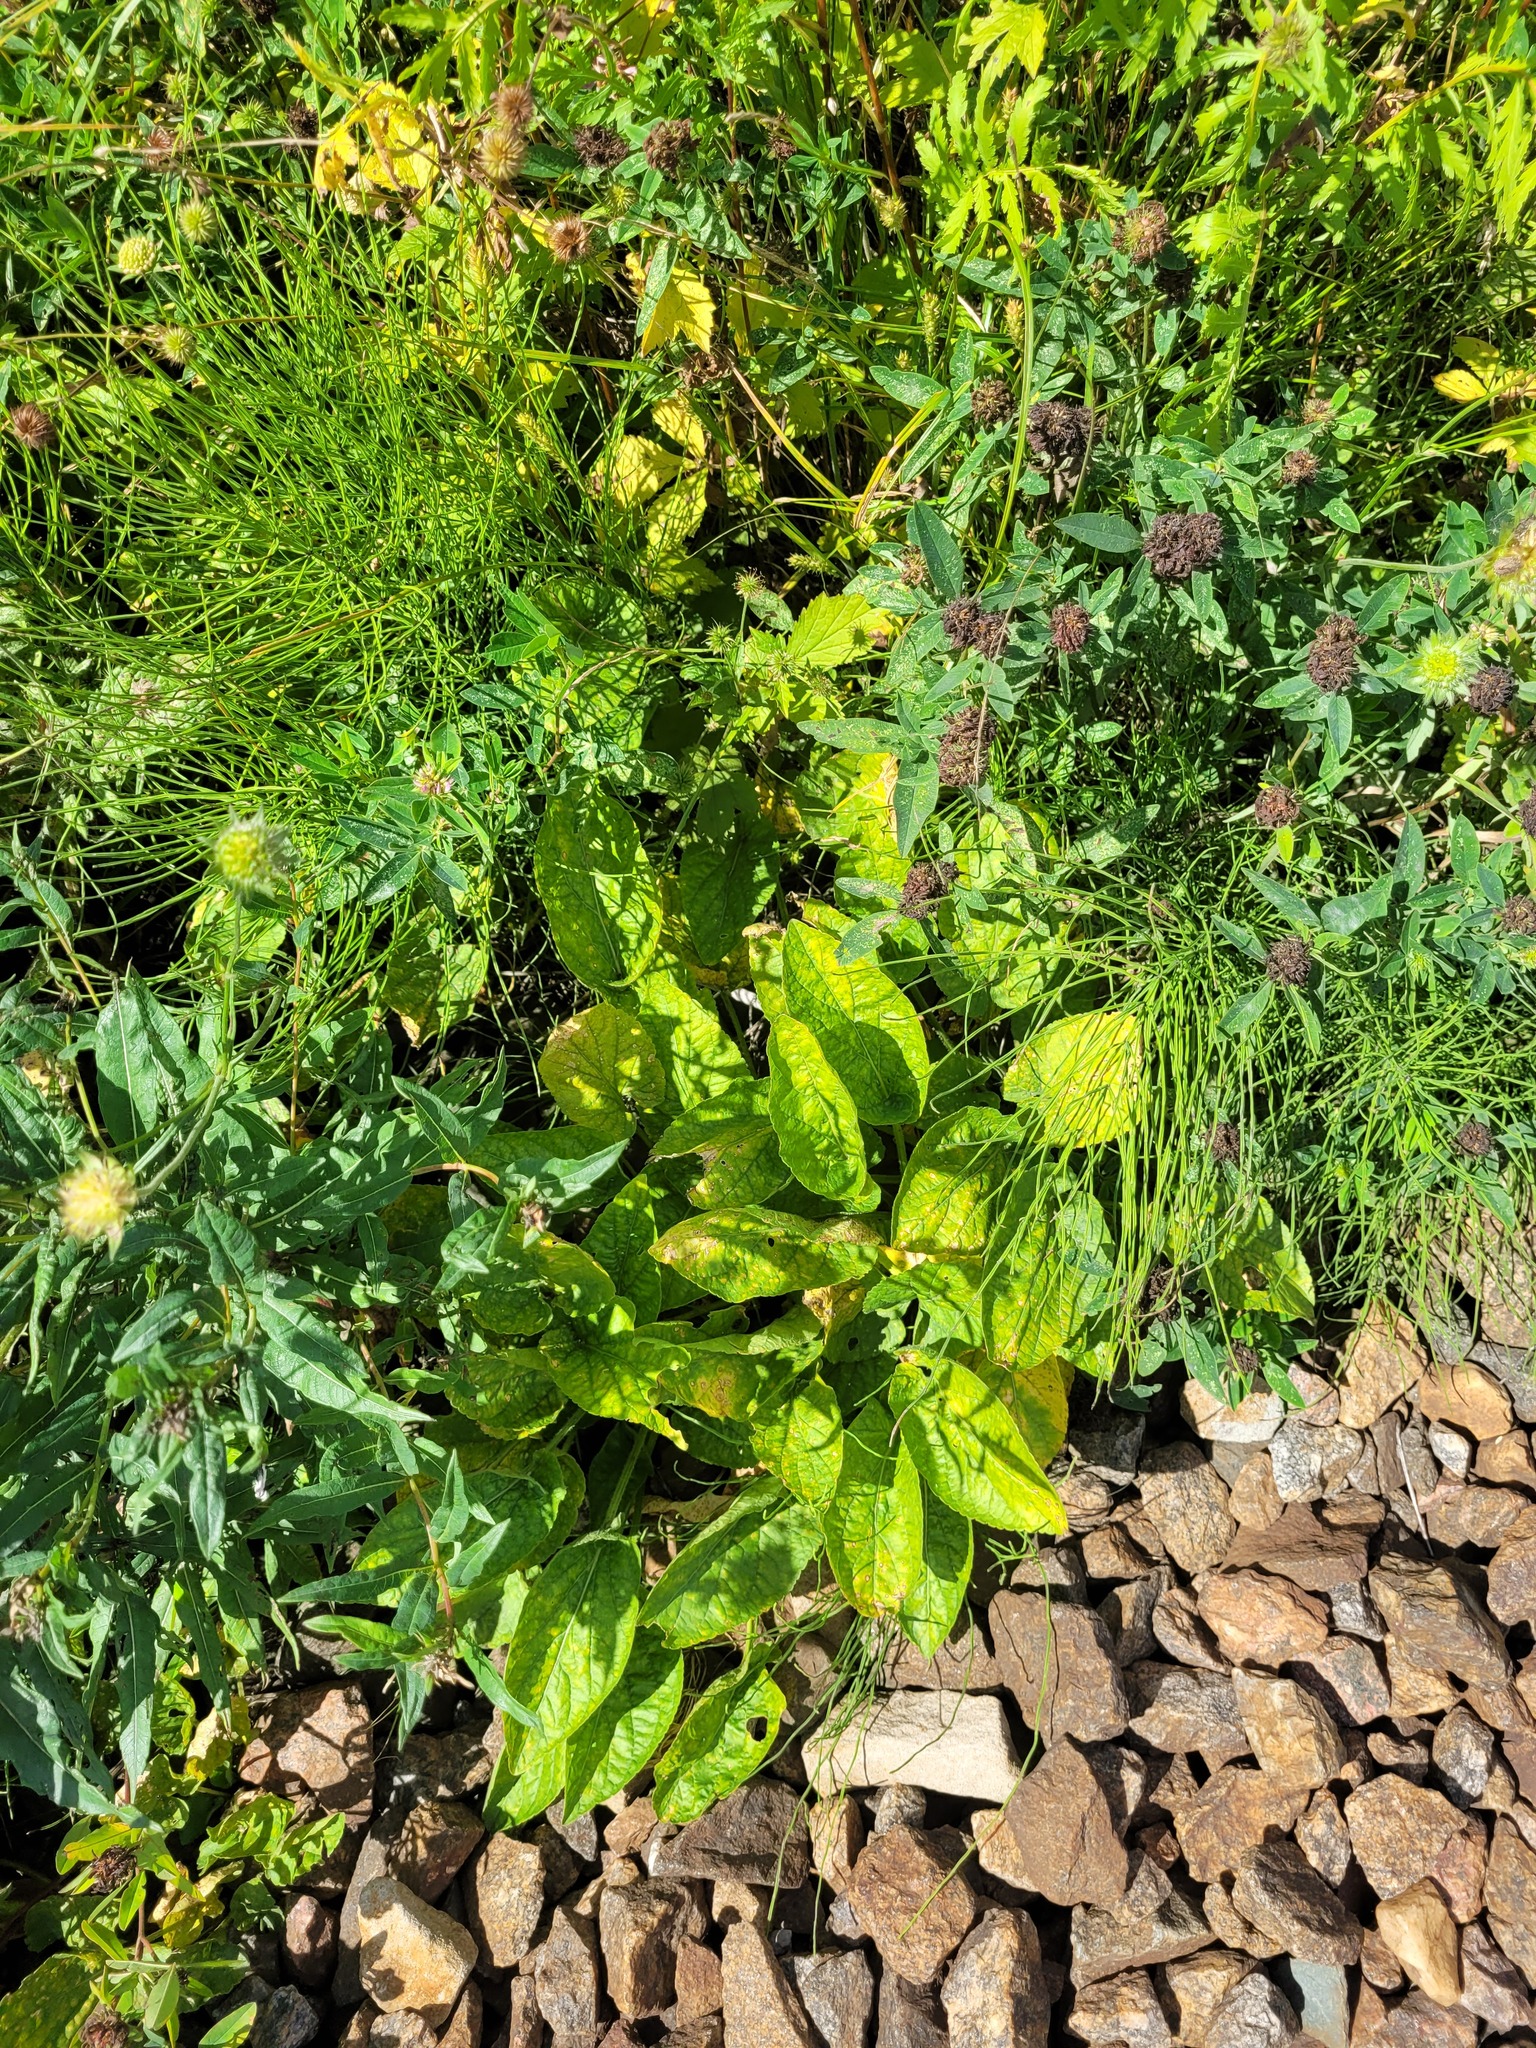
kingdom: Plantae
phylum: Tracheophyta
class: Magnoliopsida
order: Malpighiales
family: Violaceae
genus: Viola
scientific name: Viola hirta
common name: Hairy violet
